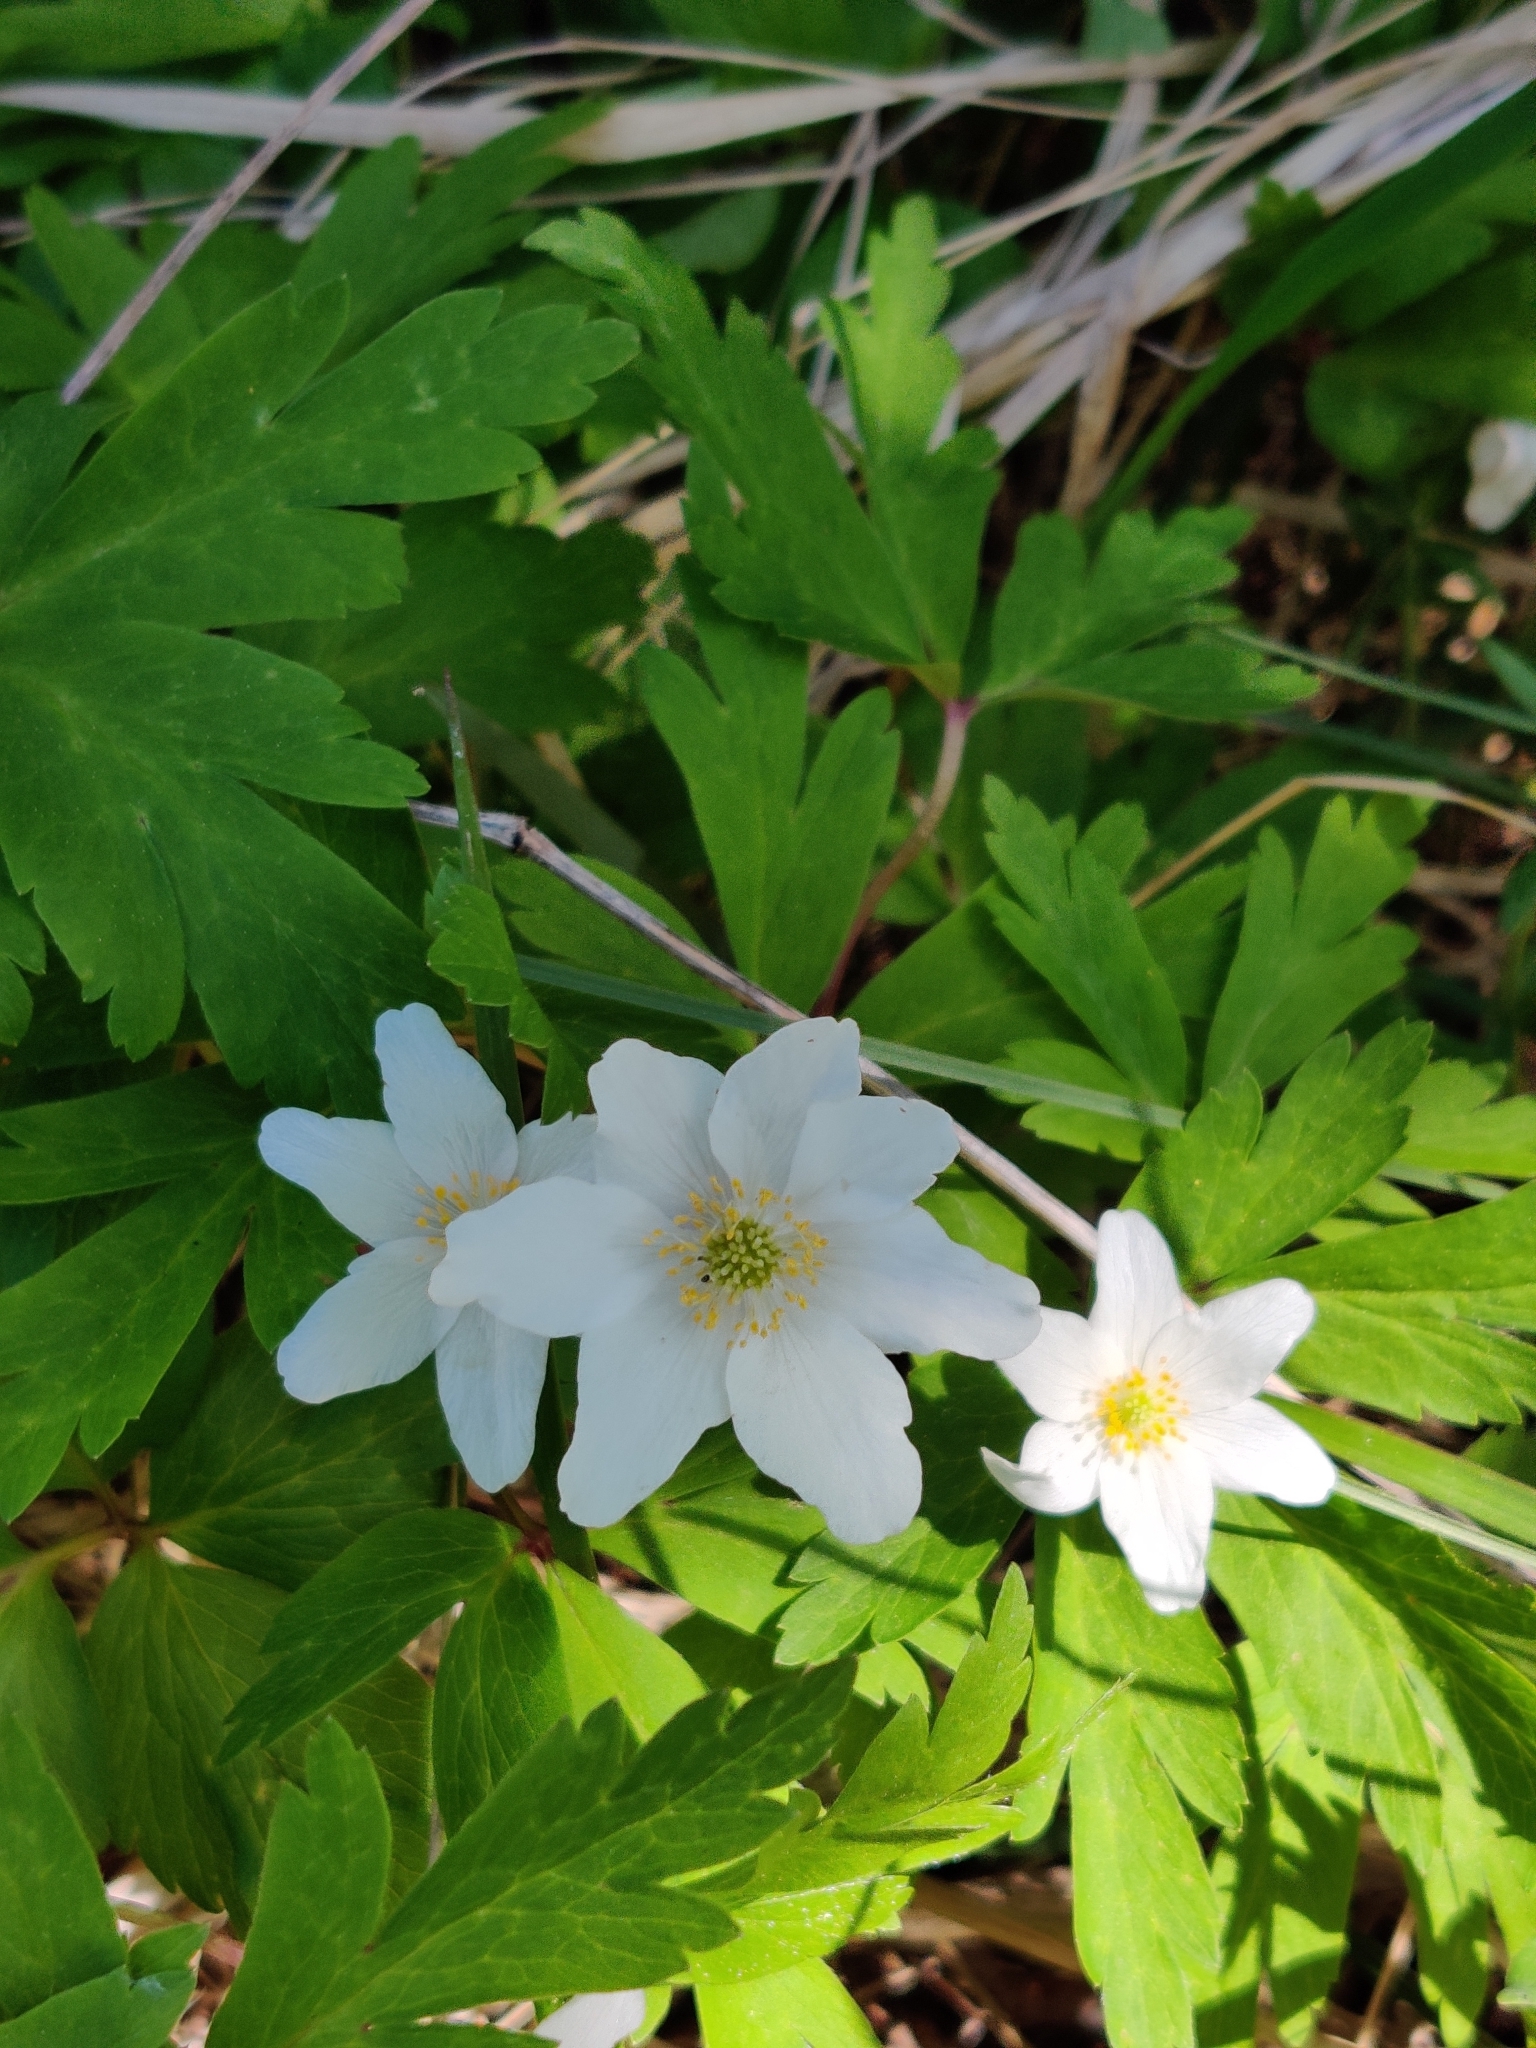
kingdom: Plantae
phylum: Tracheophyta
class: Magnoliopsida
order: Ranunculales
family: Ranunculaceae
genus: Anemone
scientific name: Anemone nemorosa
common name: Wood anemone
